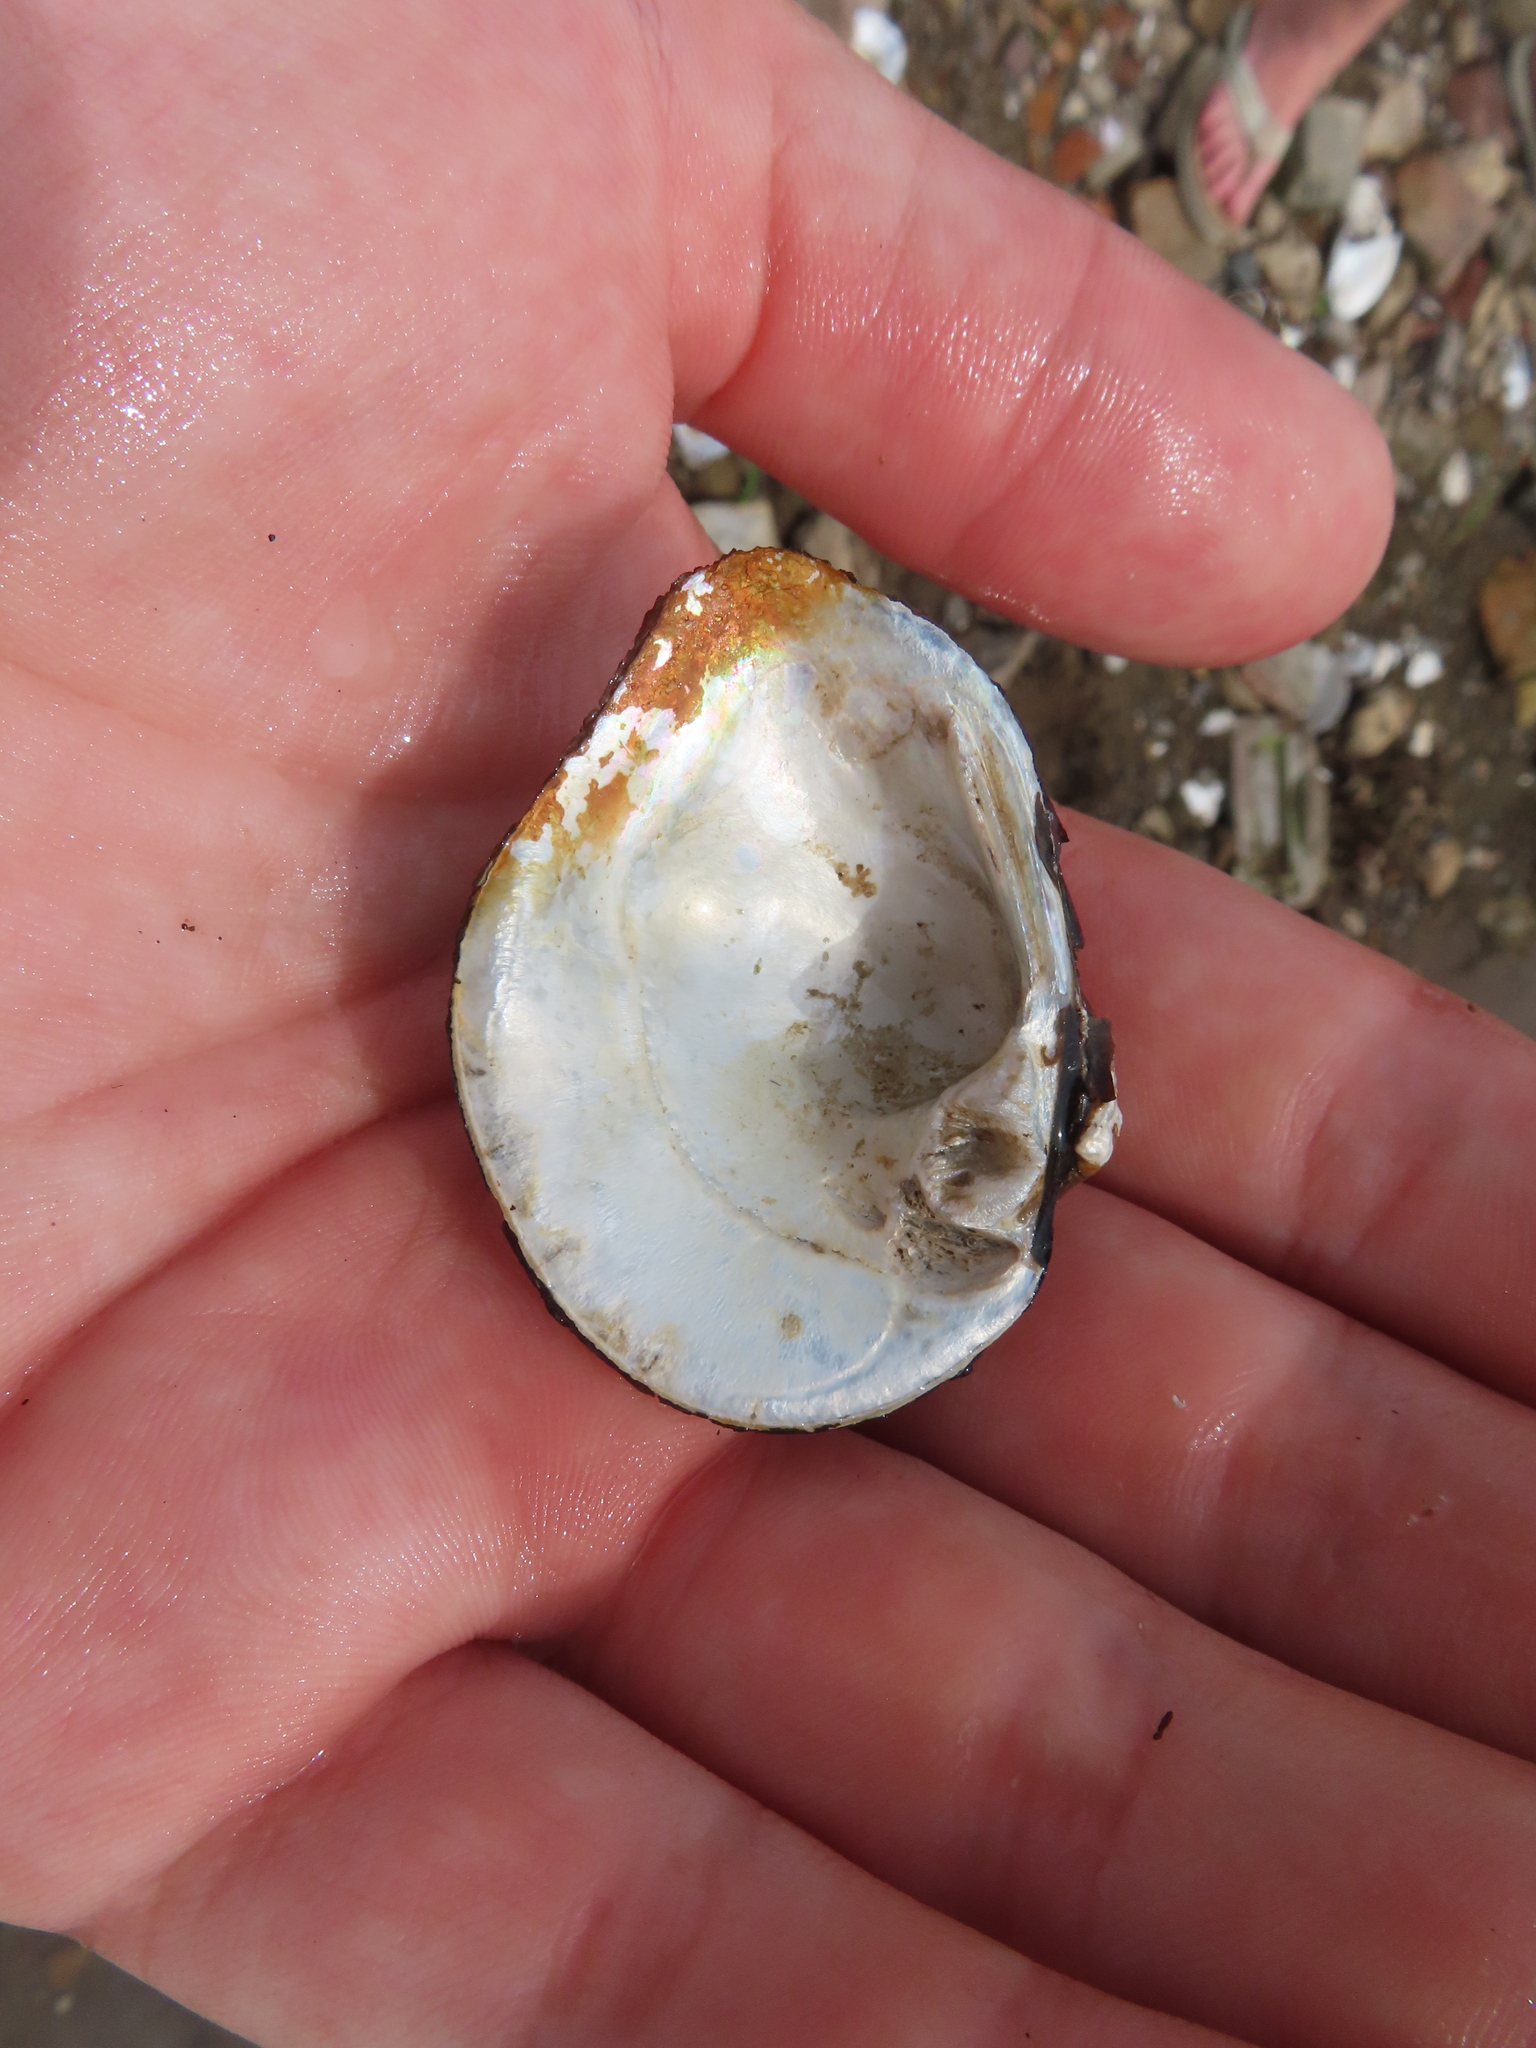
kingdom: Animalia
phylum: Mollusca
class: Bivalvia
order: Unionida
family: Unionidae
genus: Obliquaria
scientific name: Obliquaria reflexa
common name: Threehorn wartyback
